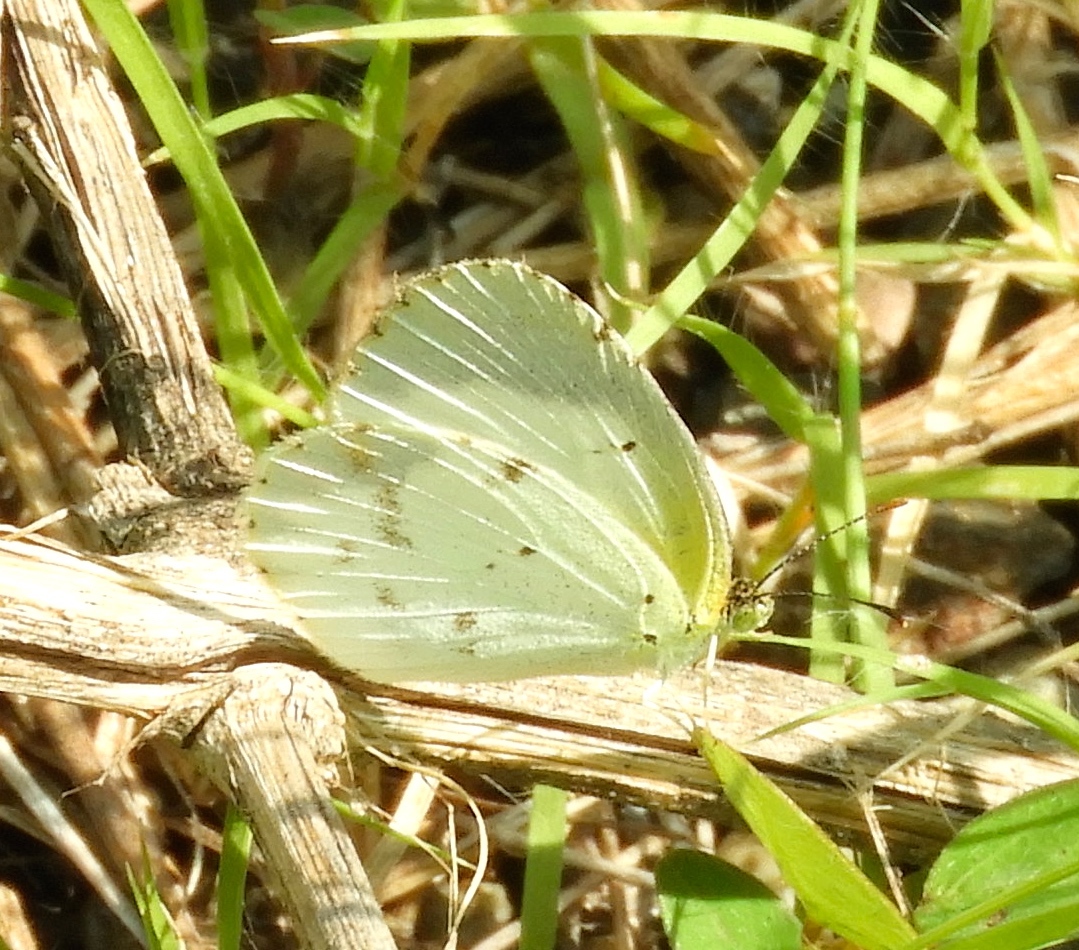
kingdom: Animalia
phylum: Arthropoda
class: Insecta
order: Lepidoptera
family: Pieridae
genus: Pyrisitia
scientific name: Pyrisitia lisa
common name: Little yellow
